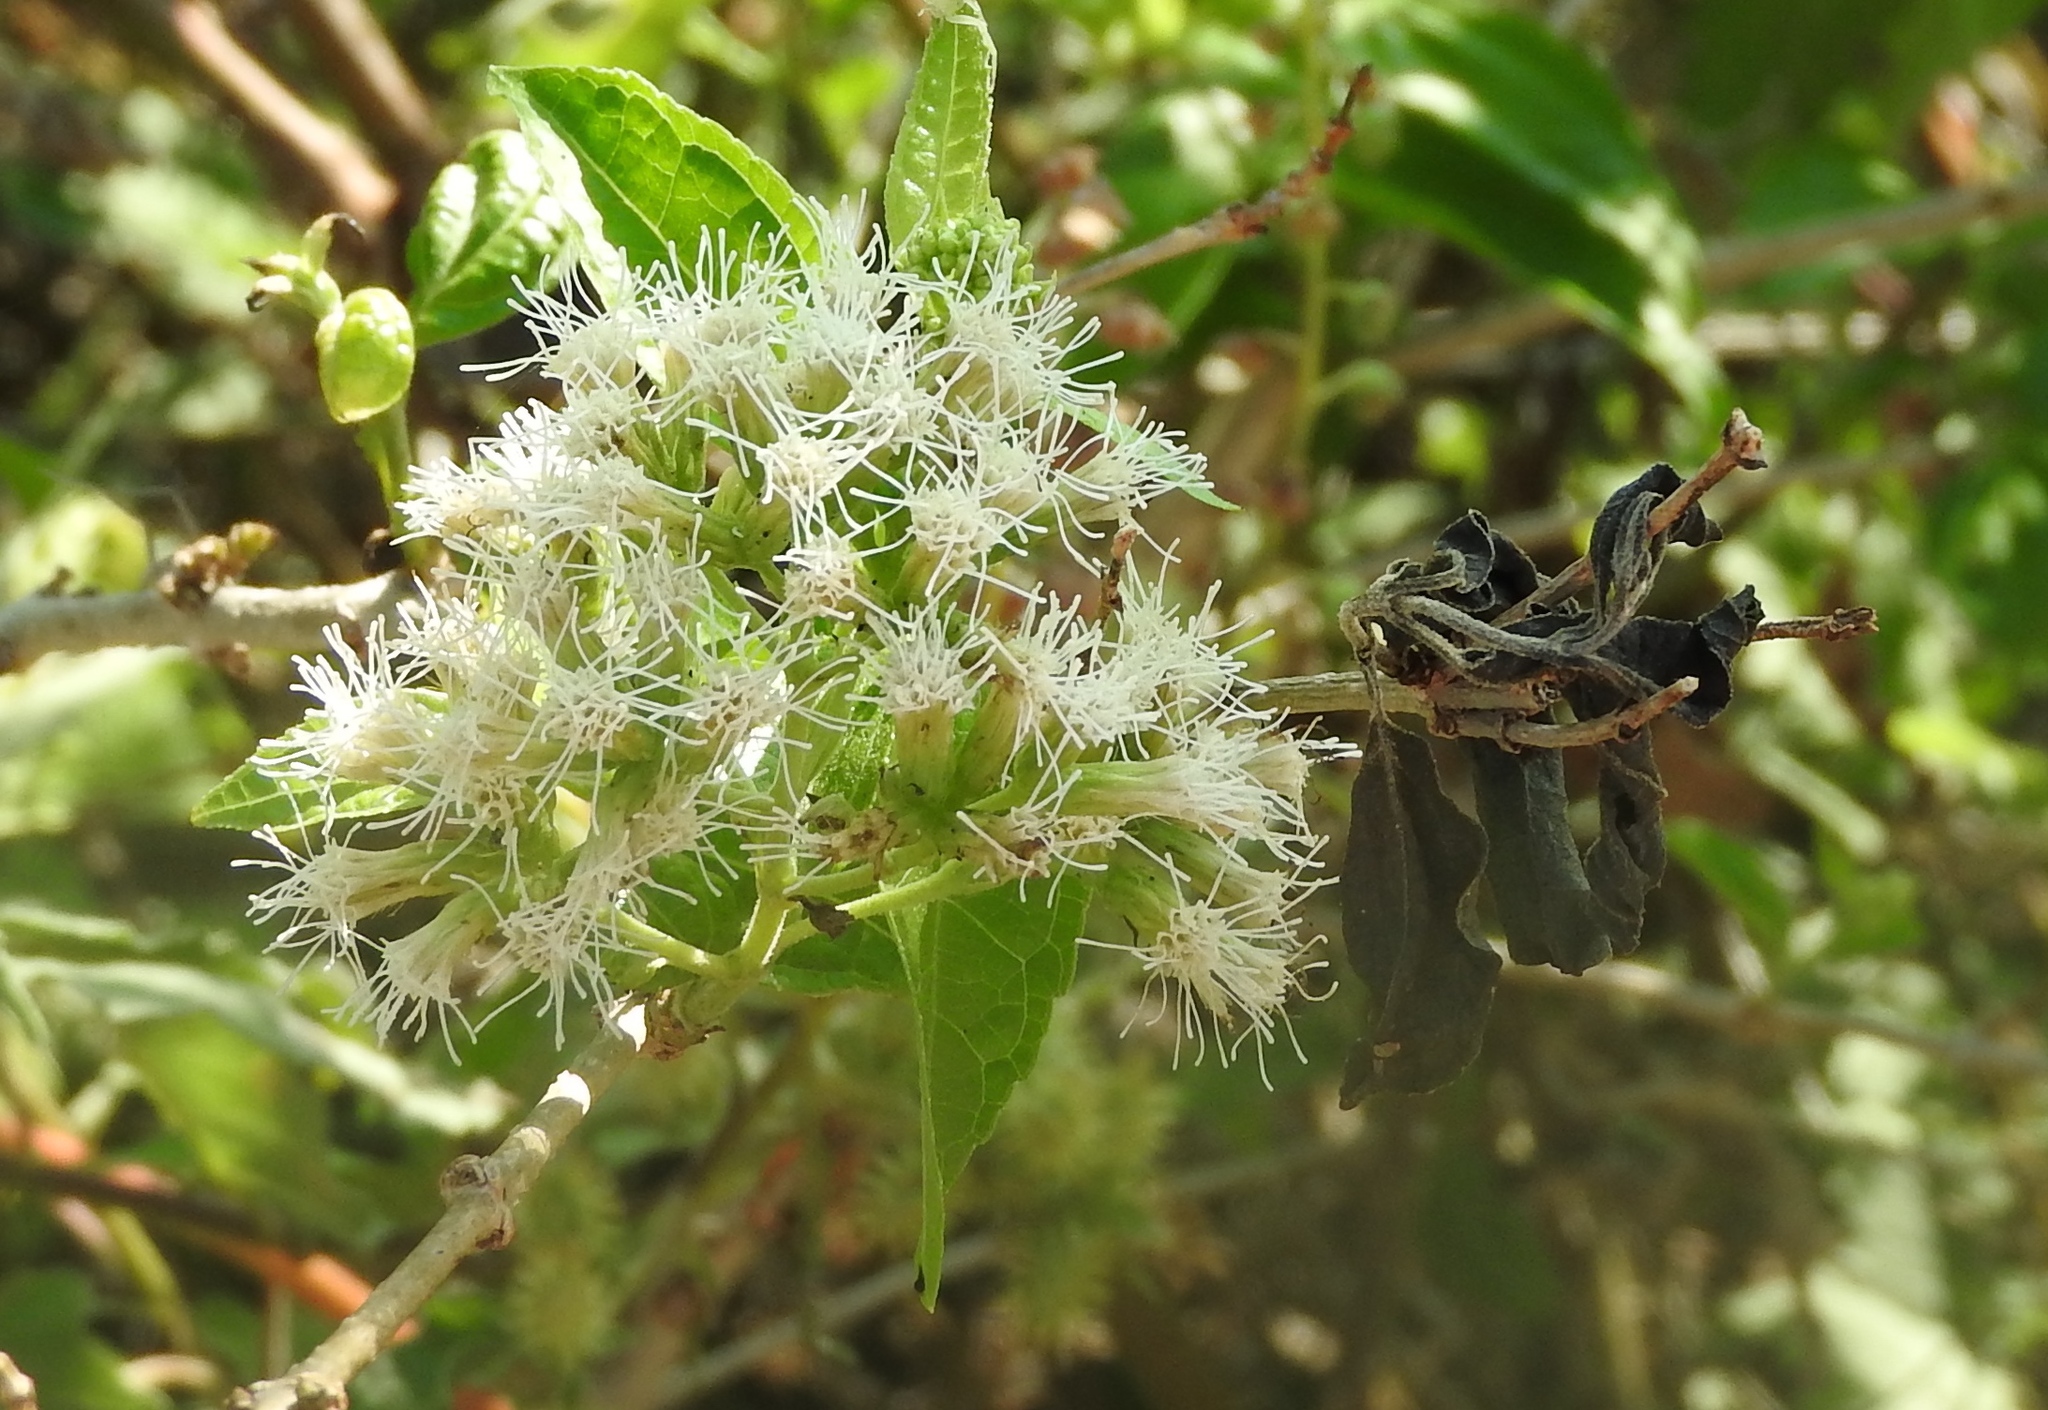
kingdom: Plantae
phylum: Tracheophyta
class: Magnoliopsida
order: Asterales
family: Asteraceae
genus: Koanophyllon
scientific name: Koanophyllon albicaule
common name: Old women's walking stick
